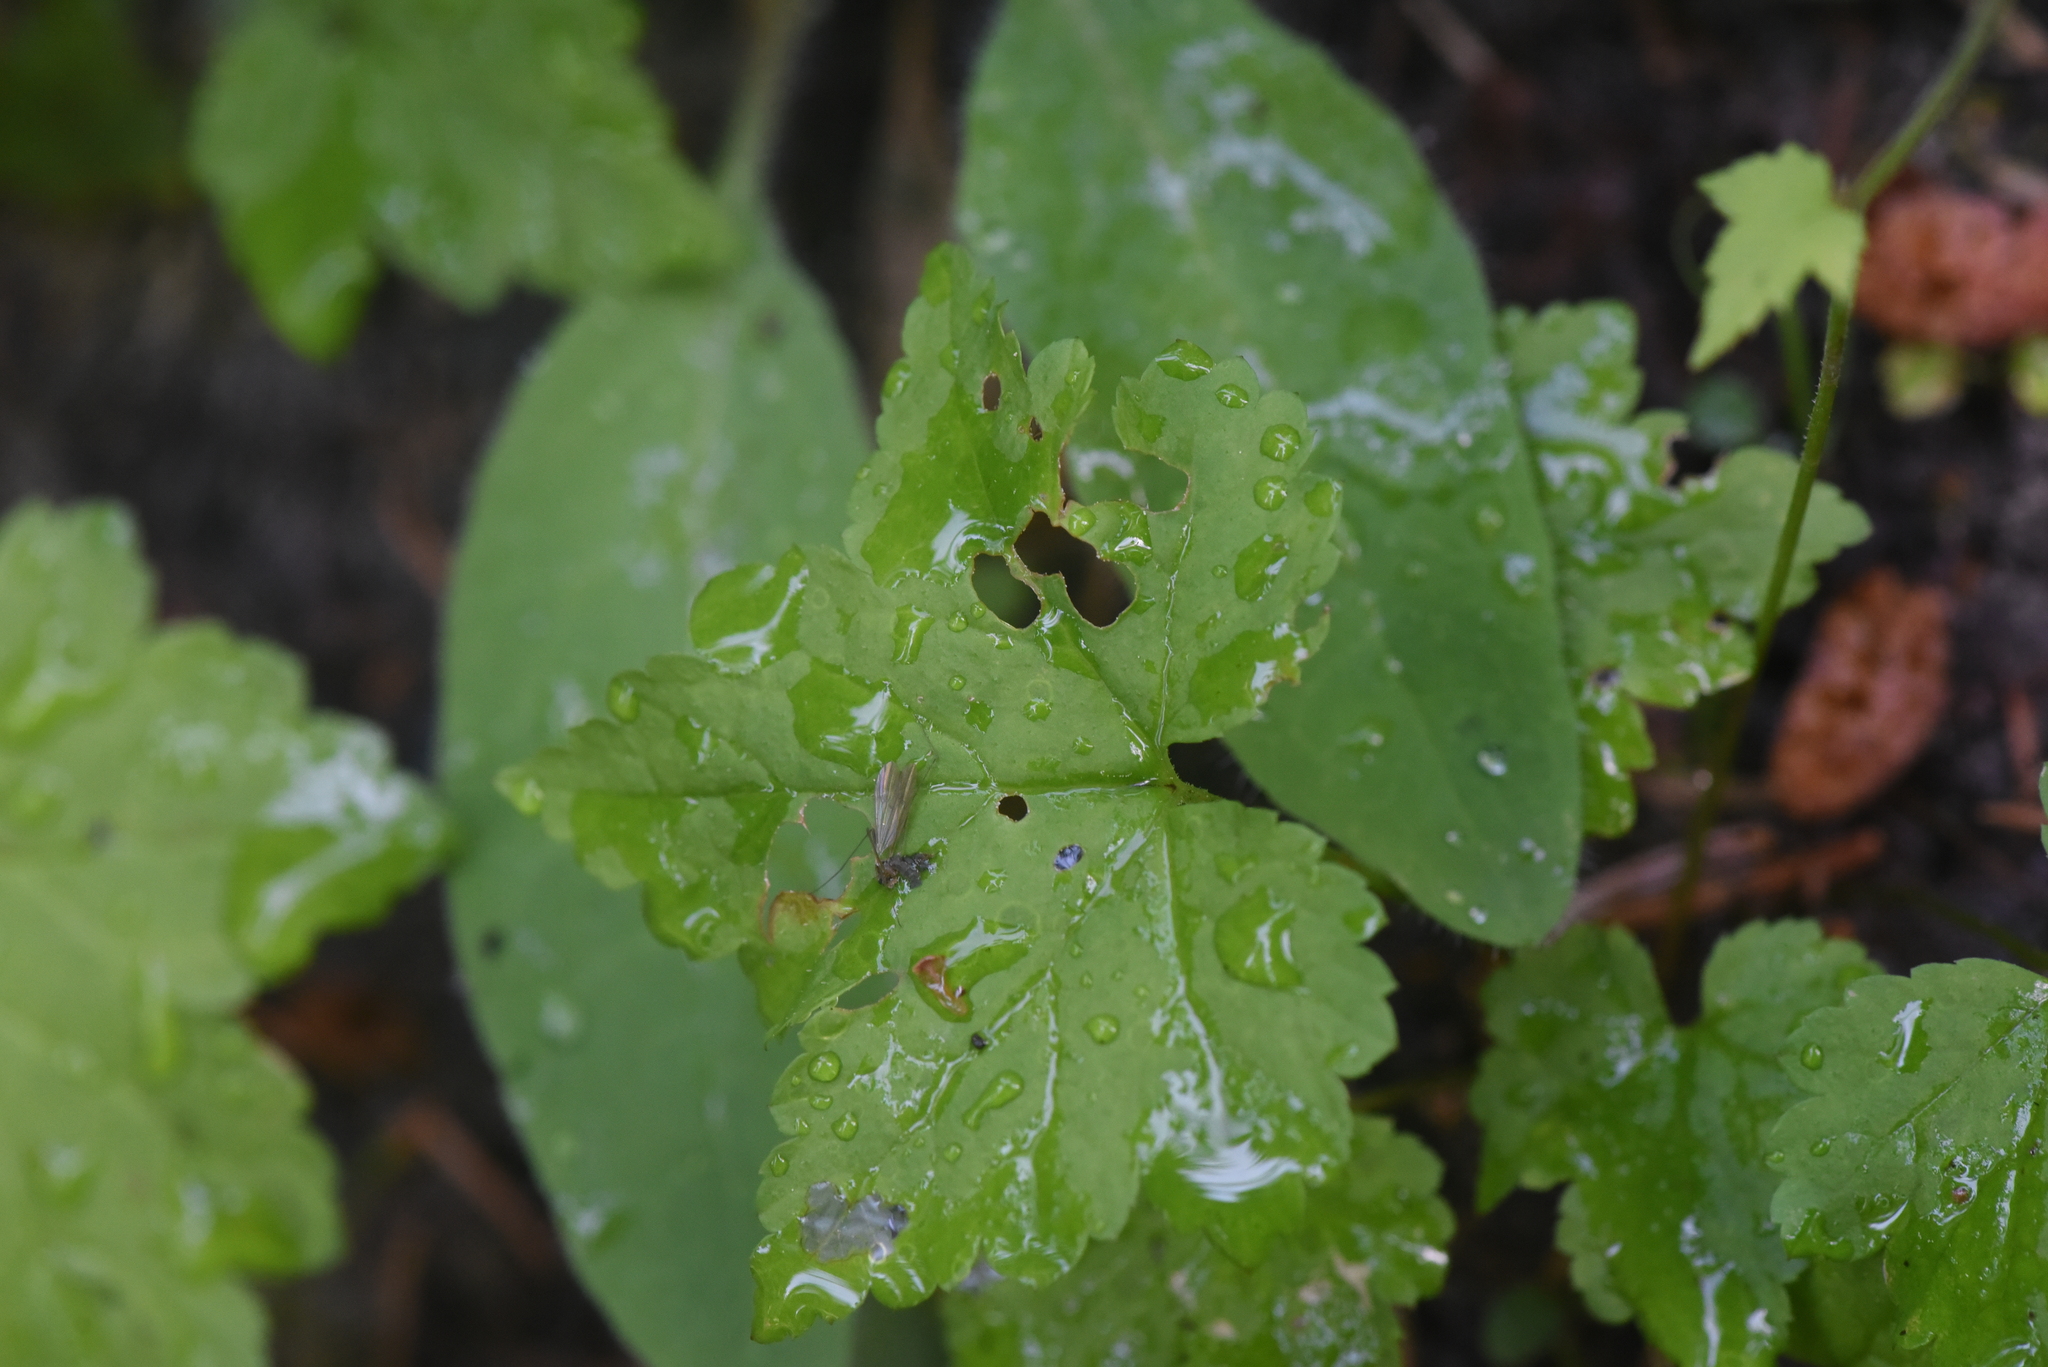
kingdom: Plantae
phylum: Tracheophyta
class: Magnoliopsida
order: Saxifragales
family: Saxifragaceae
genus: Tiarella
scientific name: Tiarella trifoliata
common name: Sugar-scoop
